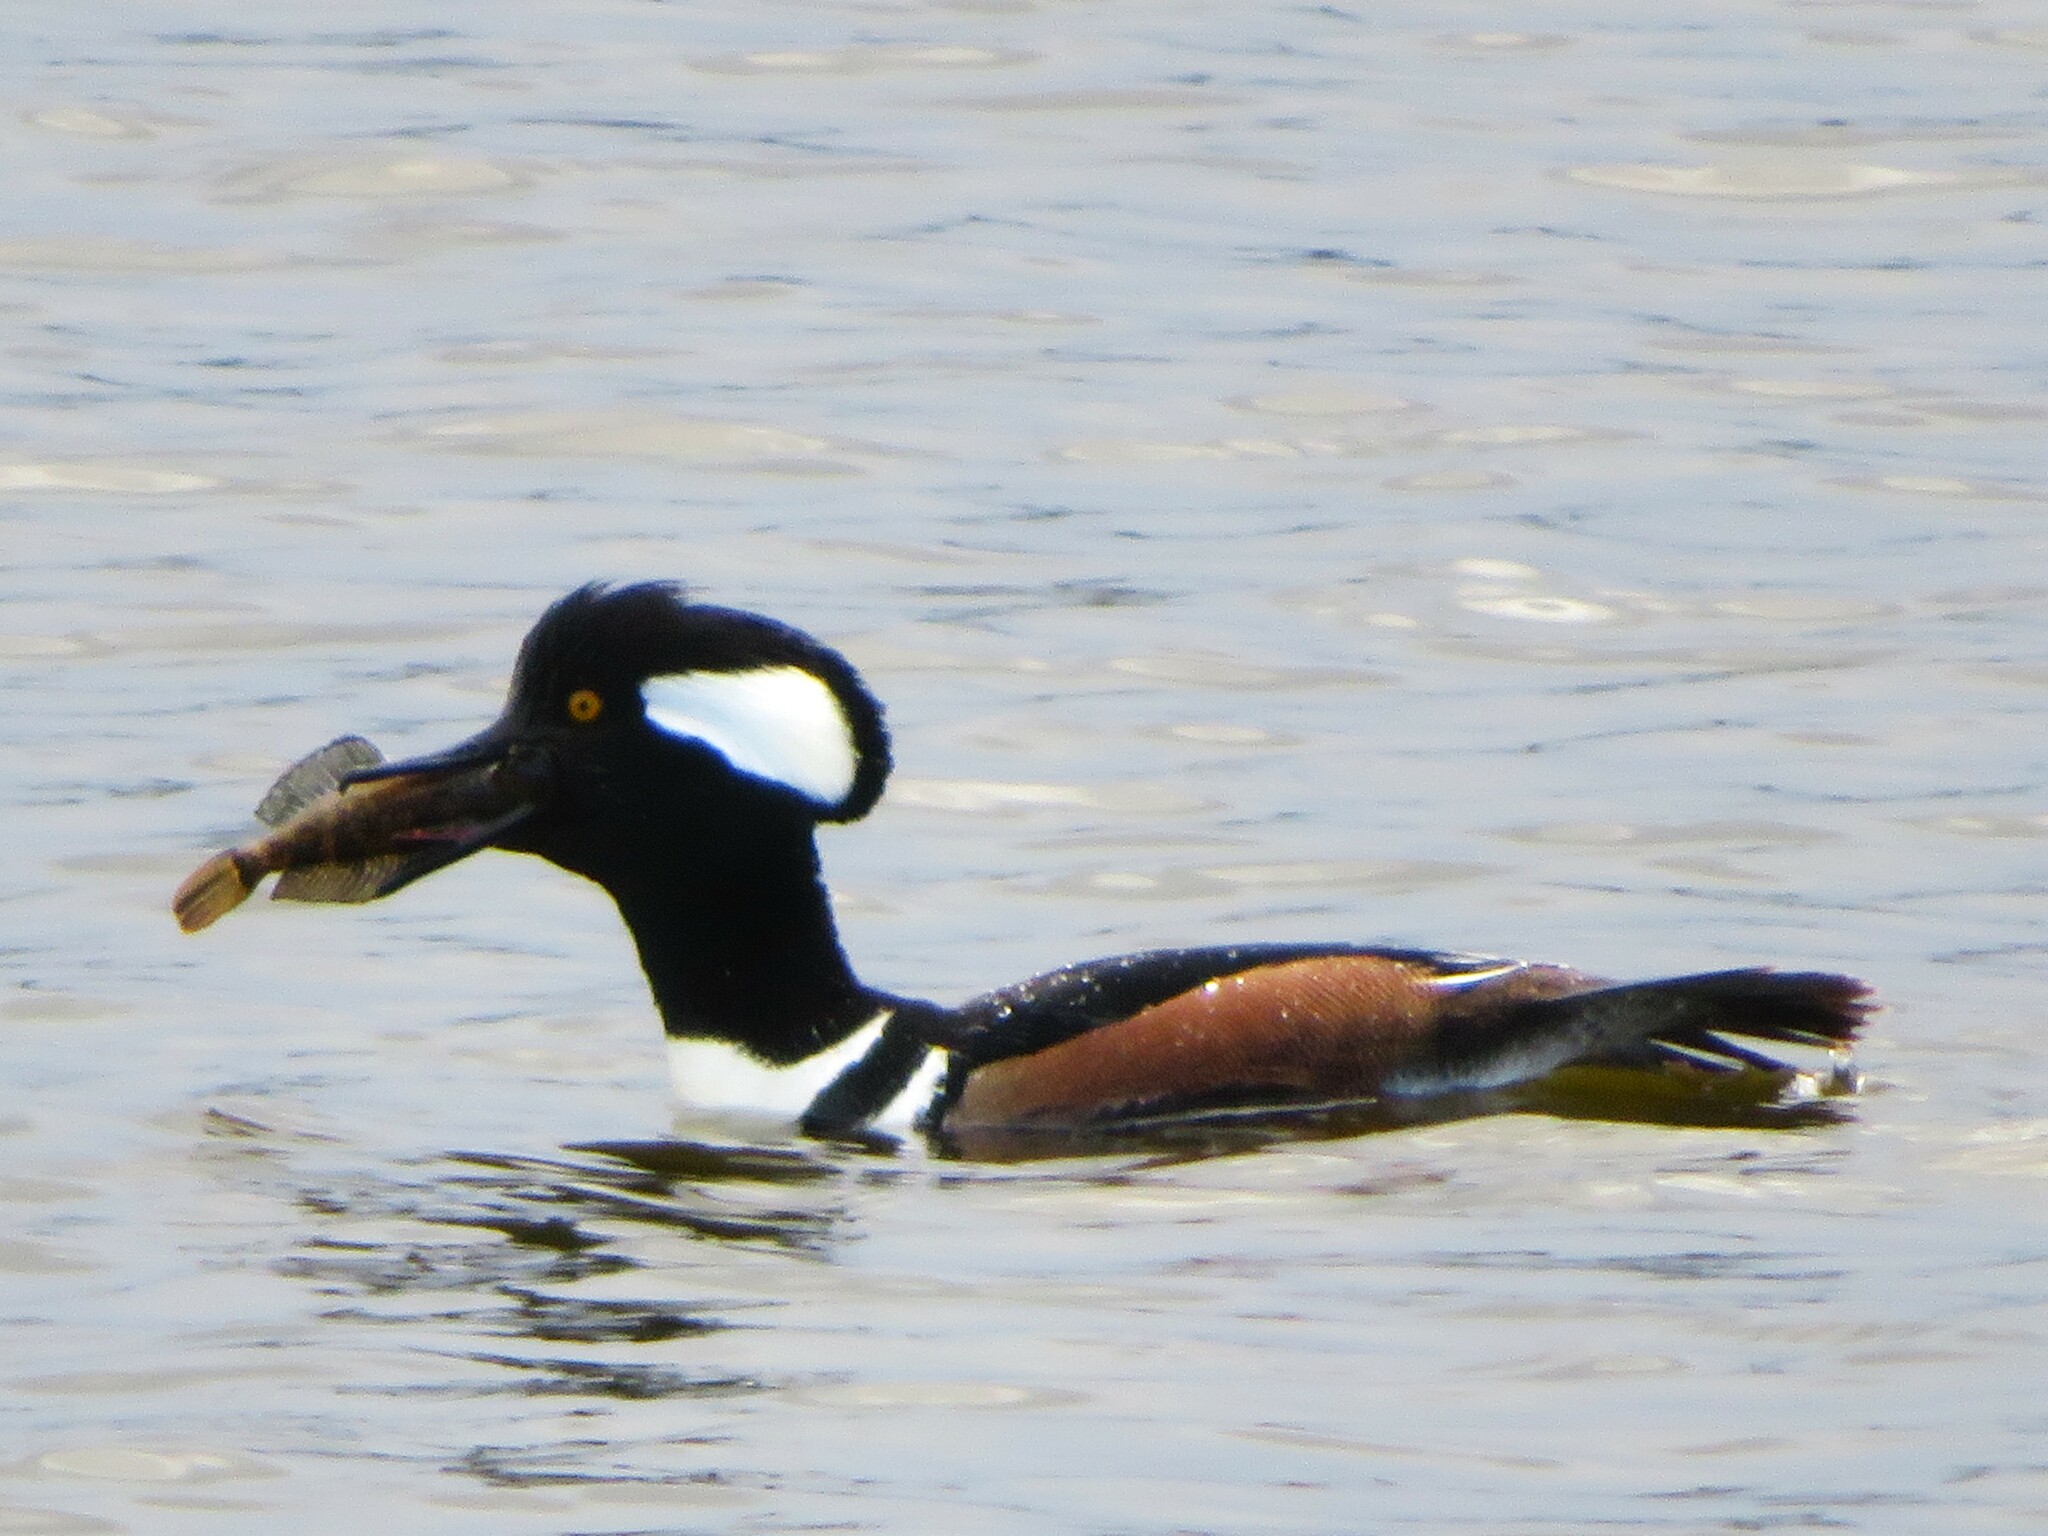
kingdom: Animalia
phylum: Chordata
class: Aves
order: Anseriformes
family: Anatidae
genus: Lophodytes
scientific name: Lophodytes cucullatus
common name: Hooded merganser
